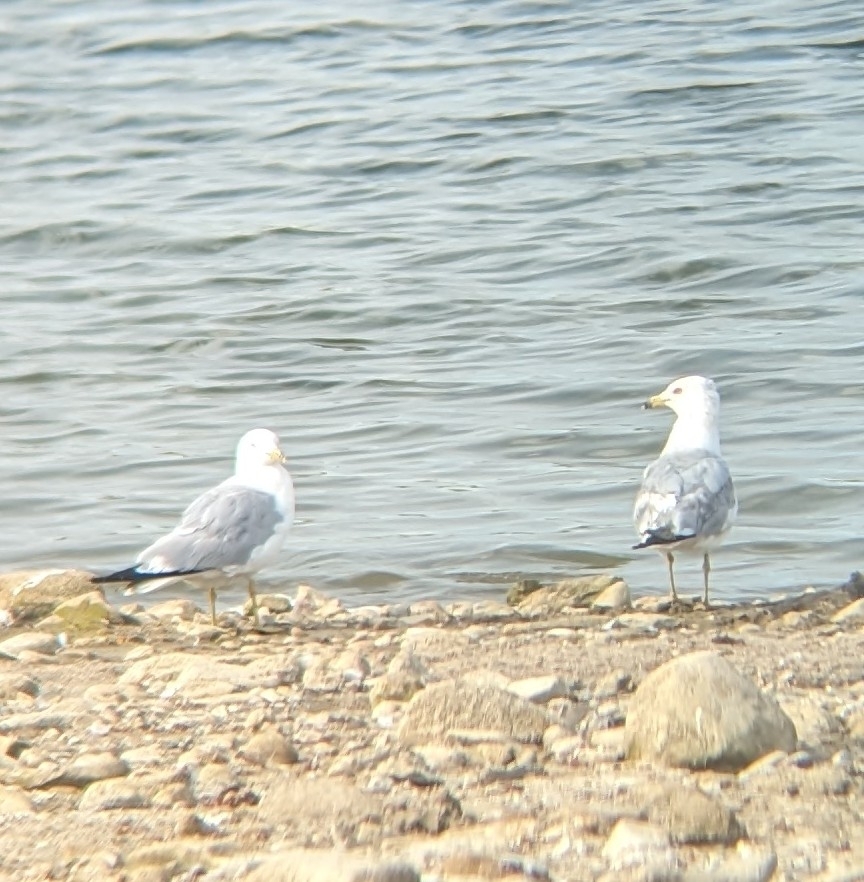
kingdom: Animalia
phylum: Chordata
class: Aves
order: Charadriiformes
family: Laridae
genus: Larus
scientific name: Larus delawarensis
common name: Ring-billed gull
